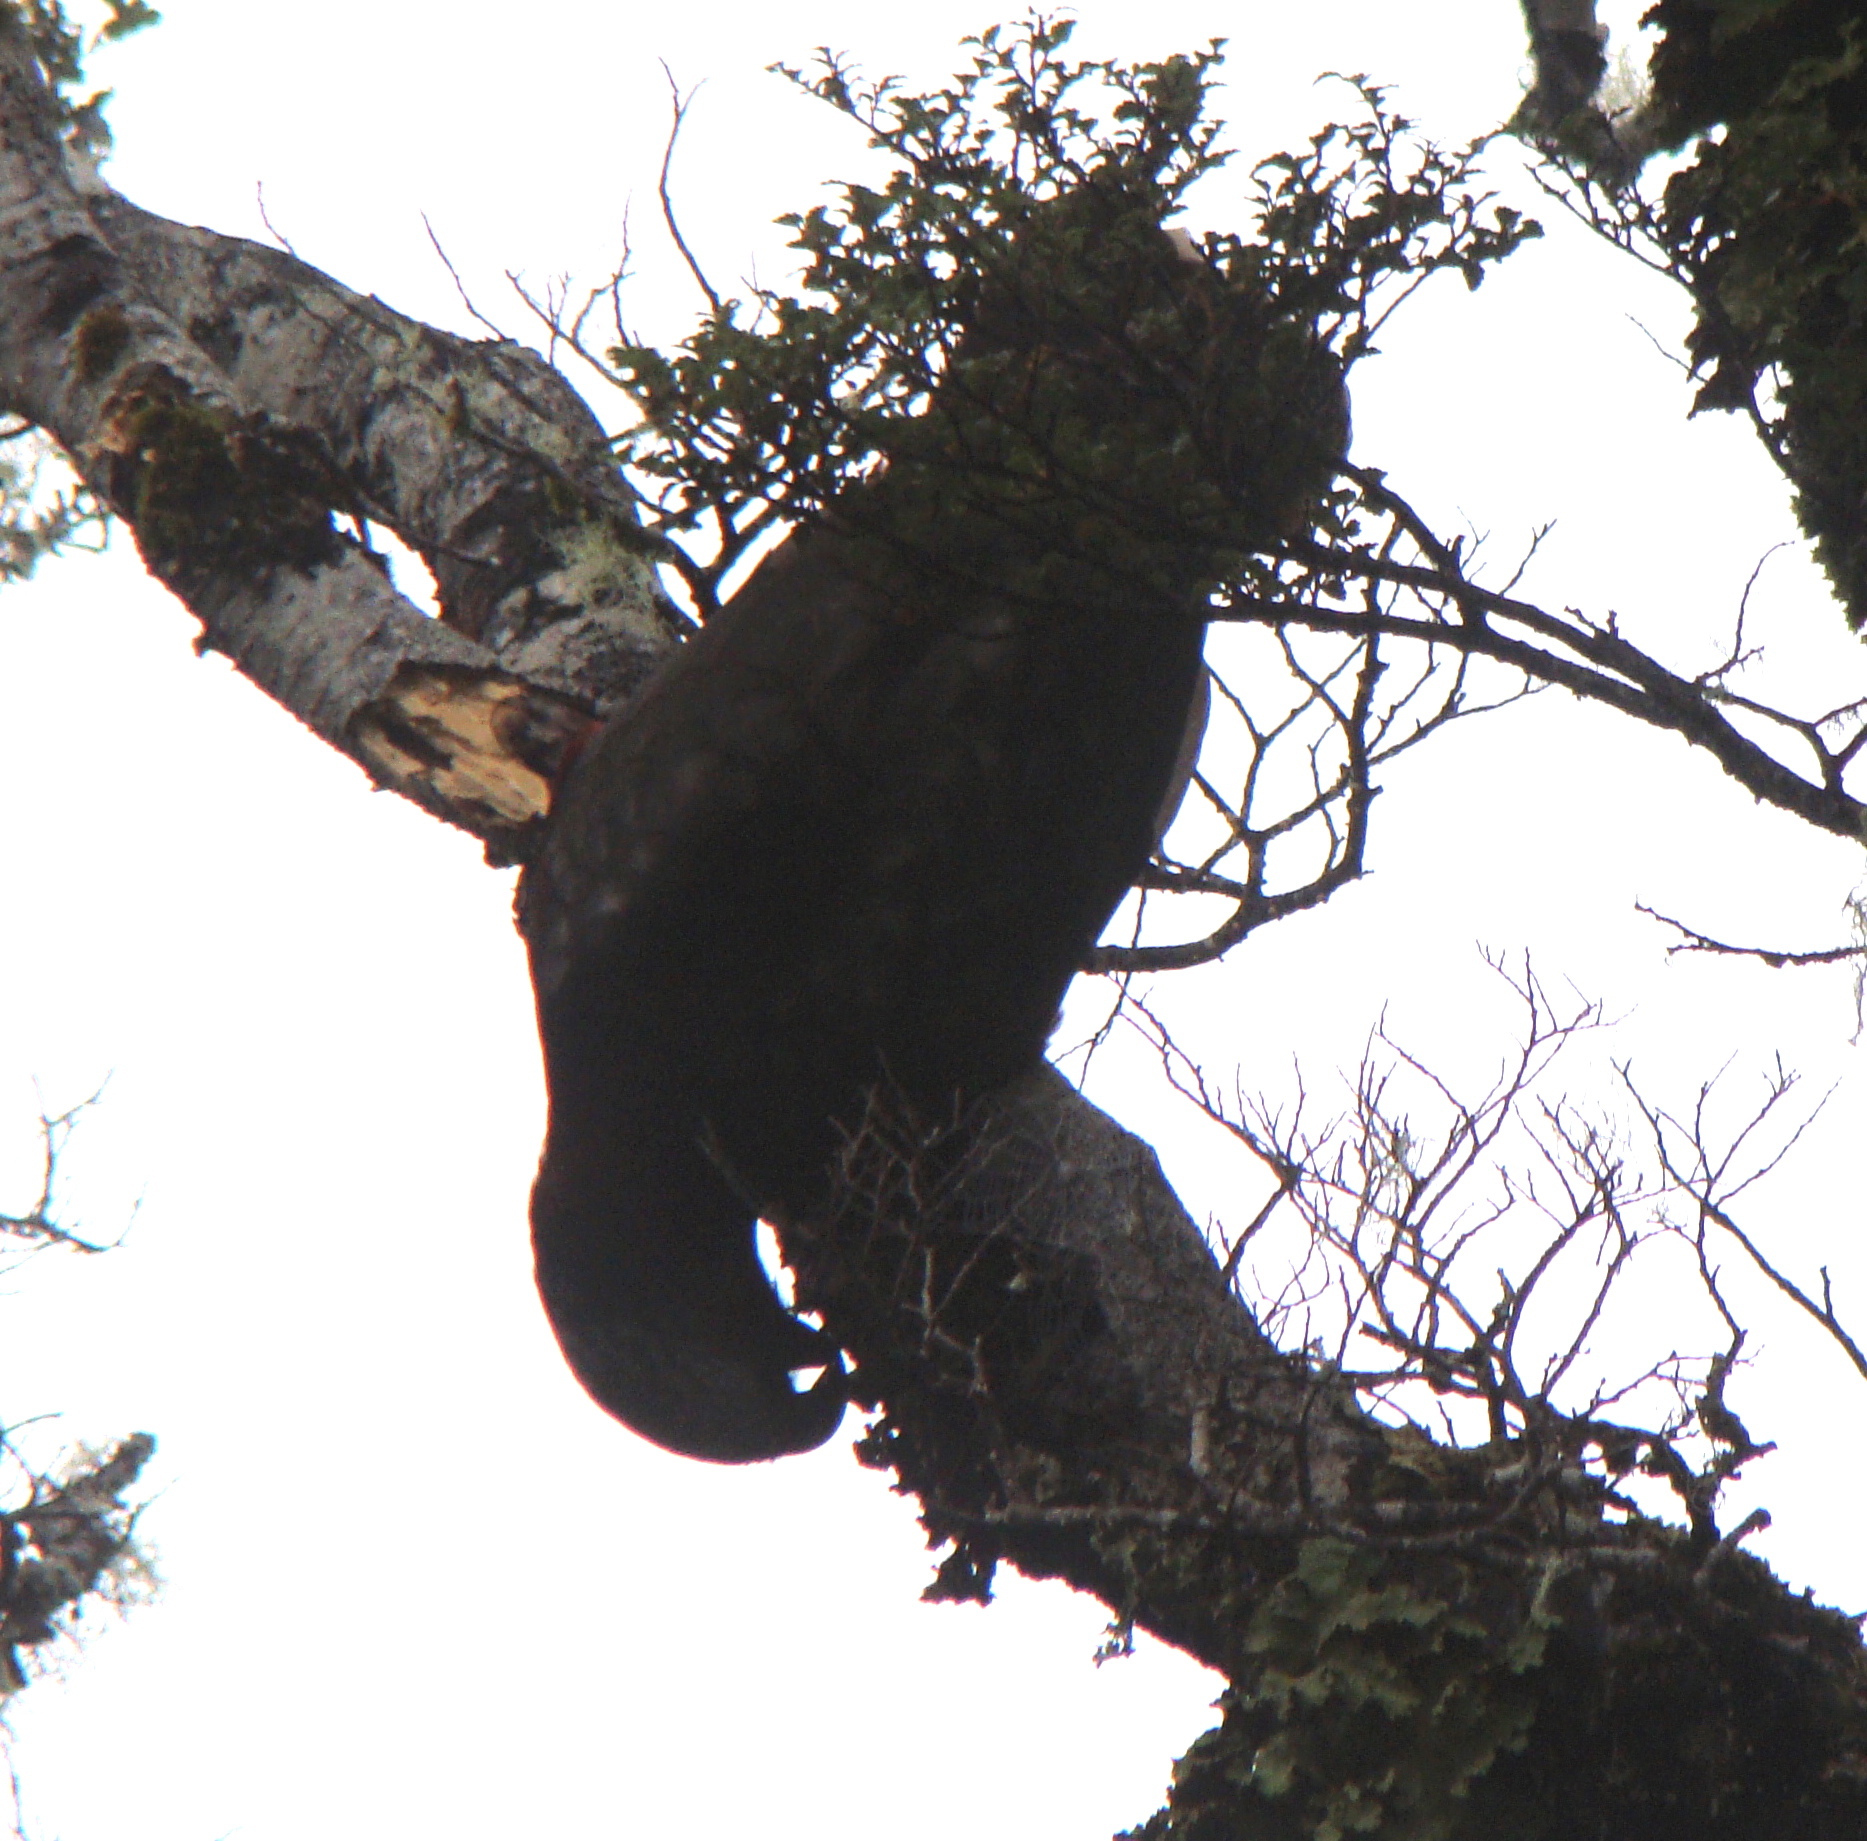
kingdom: Animalia
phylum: Chordata
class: Aves
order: Psittaciformes
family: Psittacidae
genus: Nestor
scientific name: Nestor meridionalis
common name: New zealand kaka
